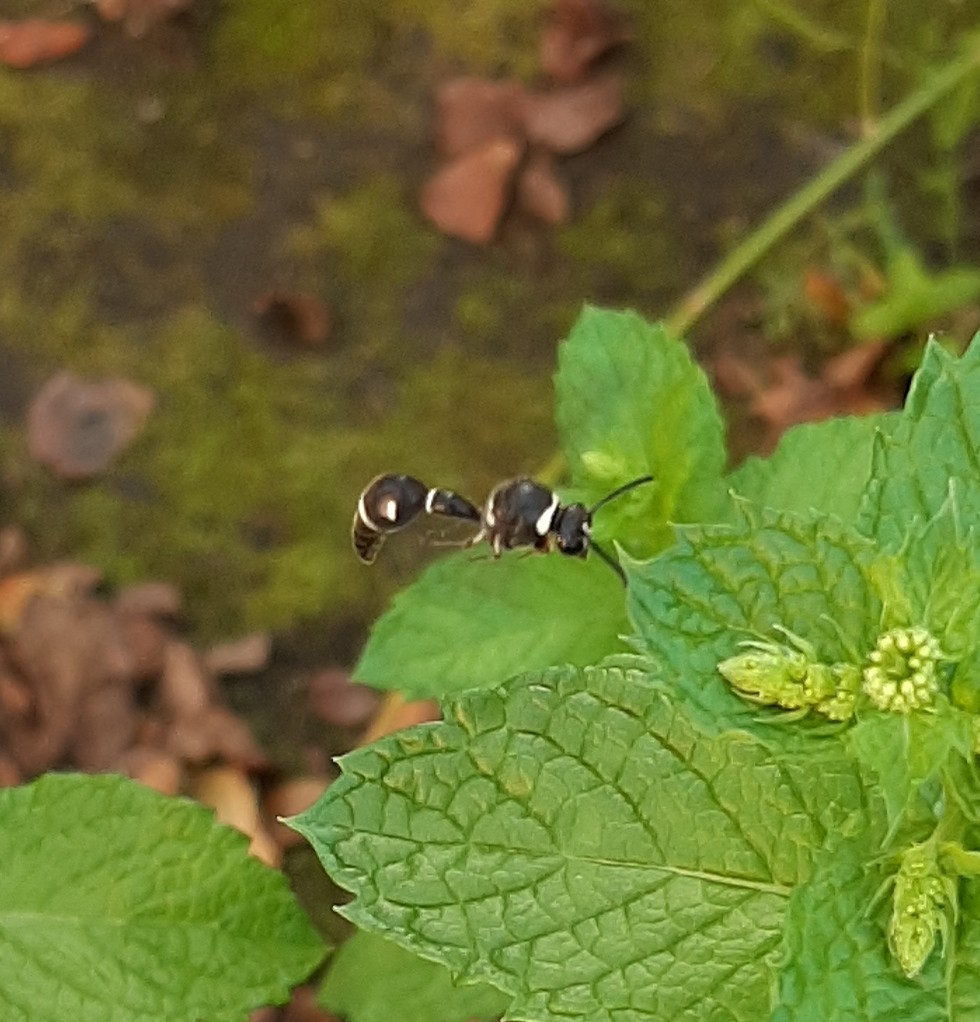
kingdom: Animalia
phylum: Arthropoda
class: Insecta
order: Hymenoptera
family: Vespidae
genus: Eumenes
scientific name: Eumenes fraternus
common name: Fraternal potter wasp
